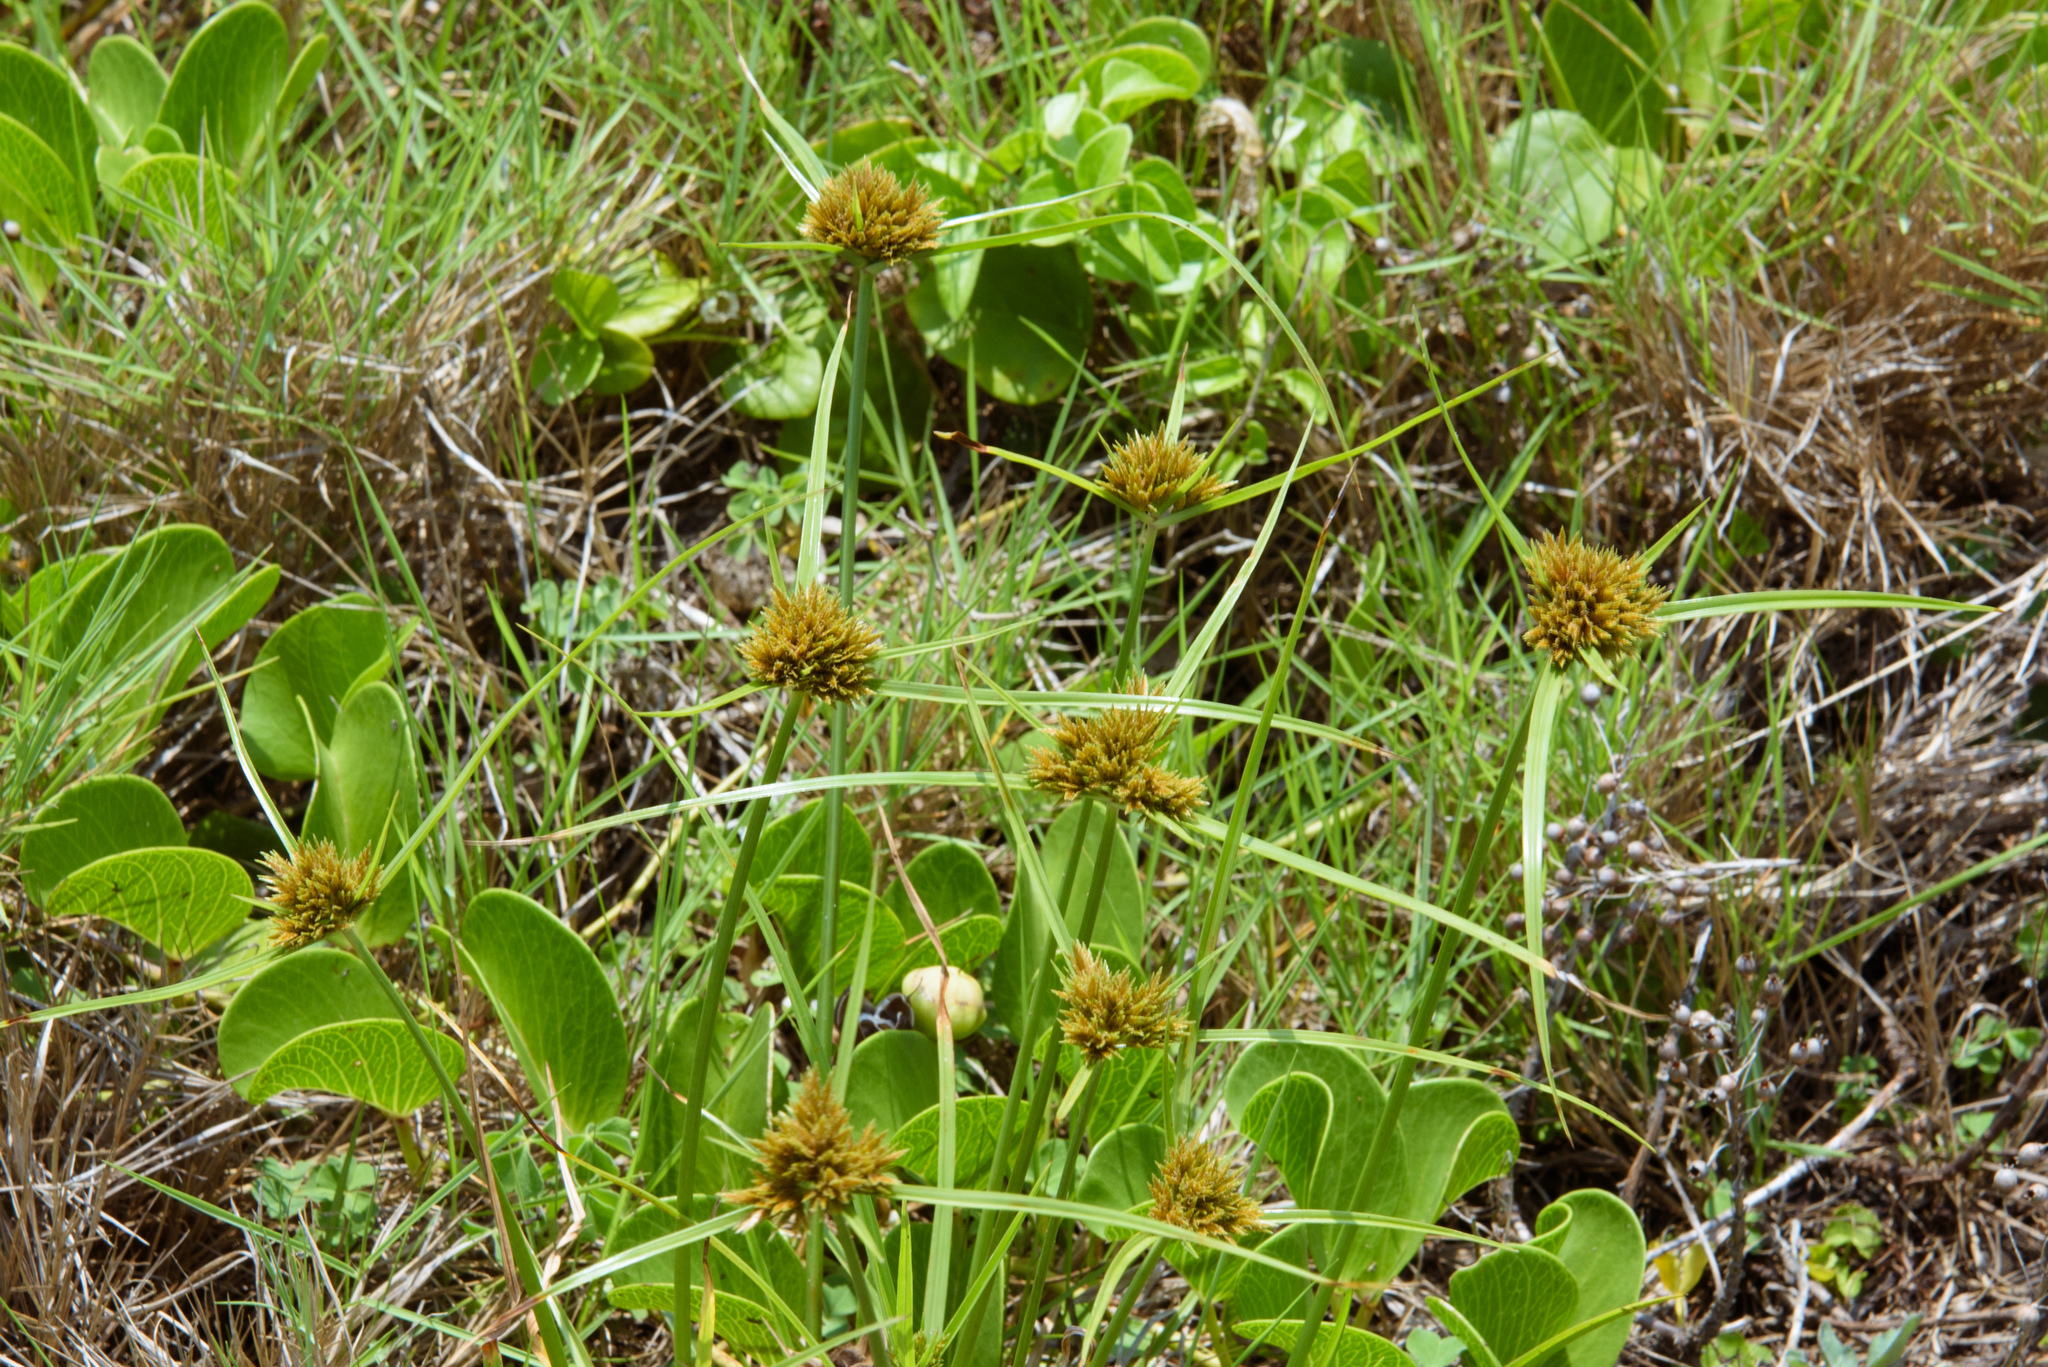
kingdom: Plantae
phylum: Tracheophyta
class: Liliopsida
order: Poales
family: Cyperaceae
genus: Cyperus
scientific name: Cyperus polystachyos
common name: Bunchy flat sedge
